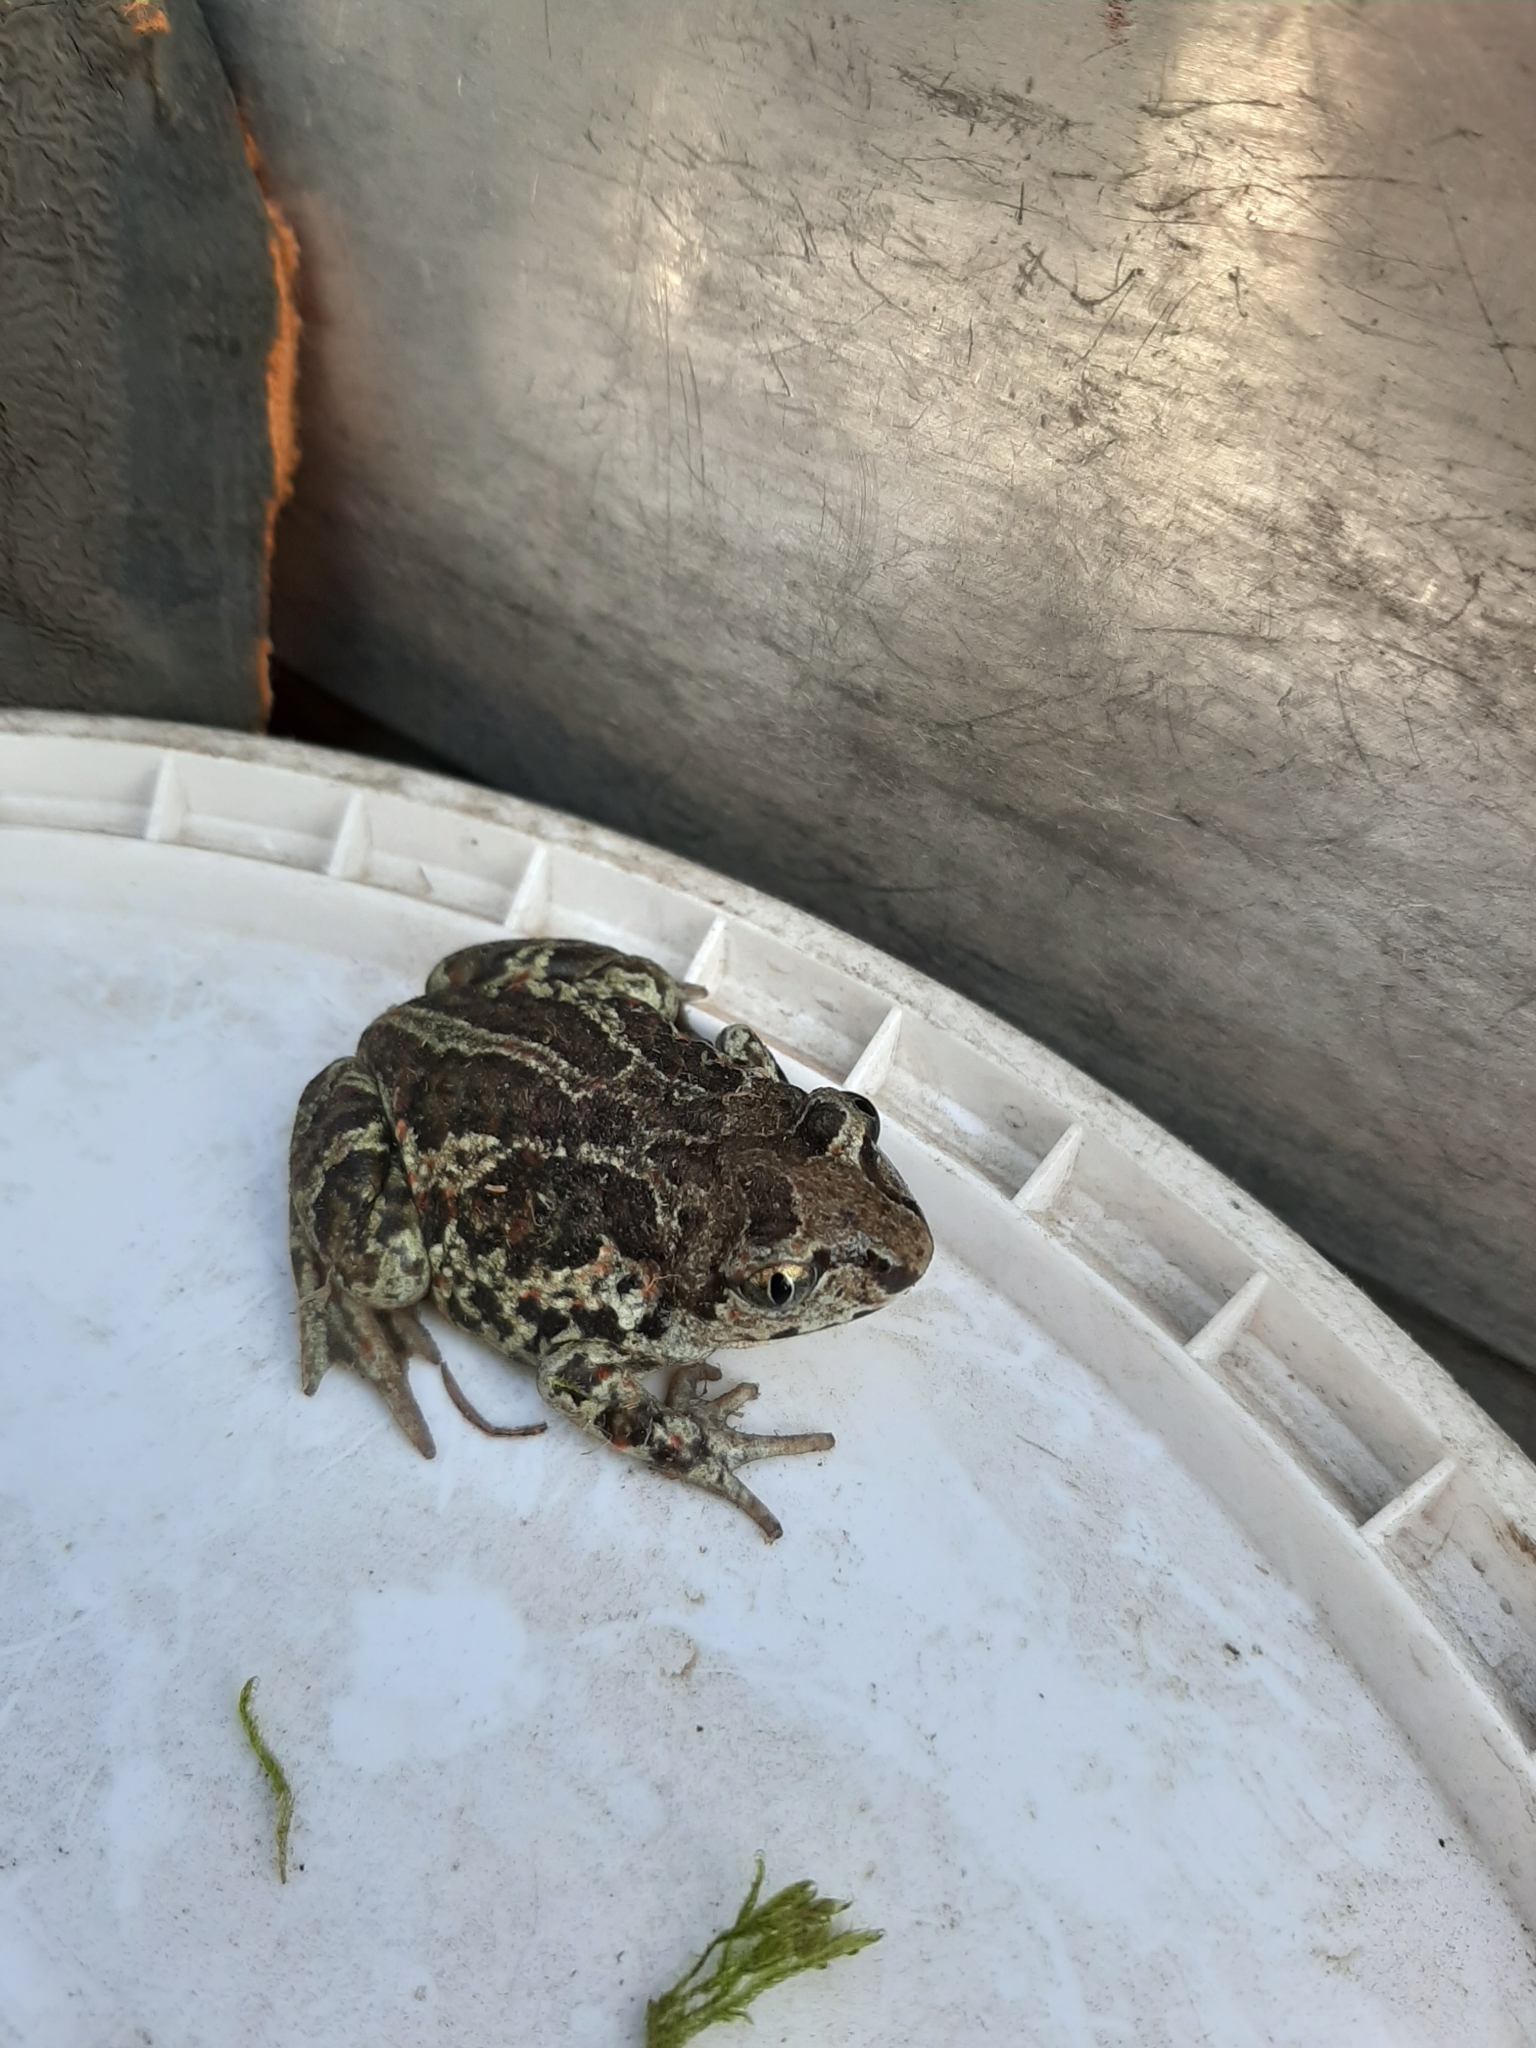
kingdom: Animalia
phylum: Chordata
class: Amphibia
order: Anura
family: Pelobatidae
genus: Pelobates
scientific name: Pelobates fuscus
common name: Common eurasian spadefoot toad
